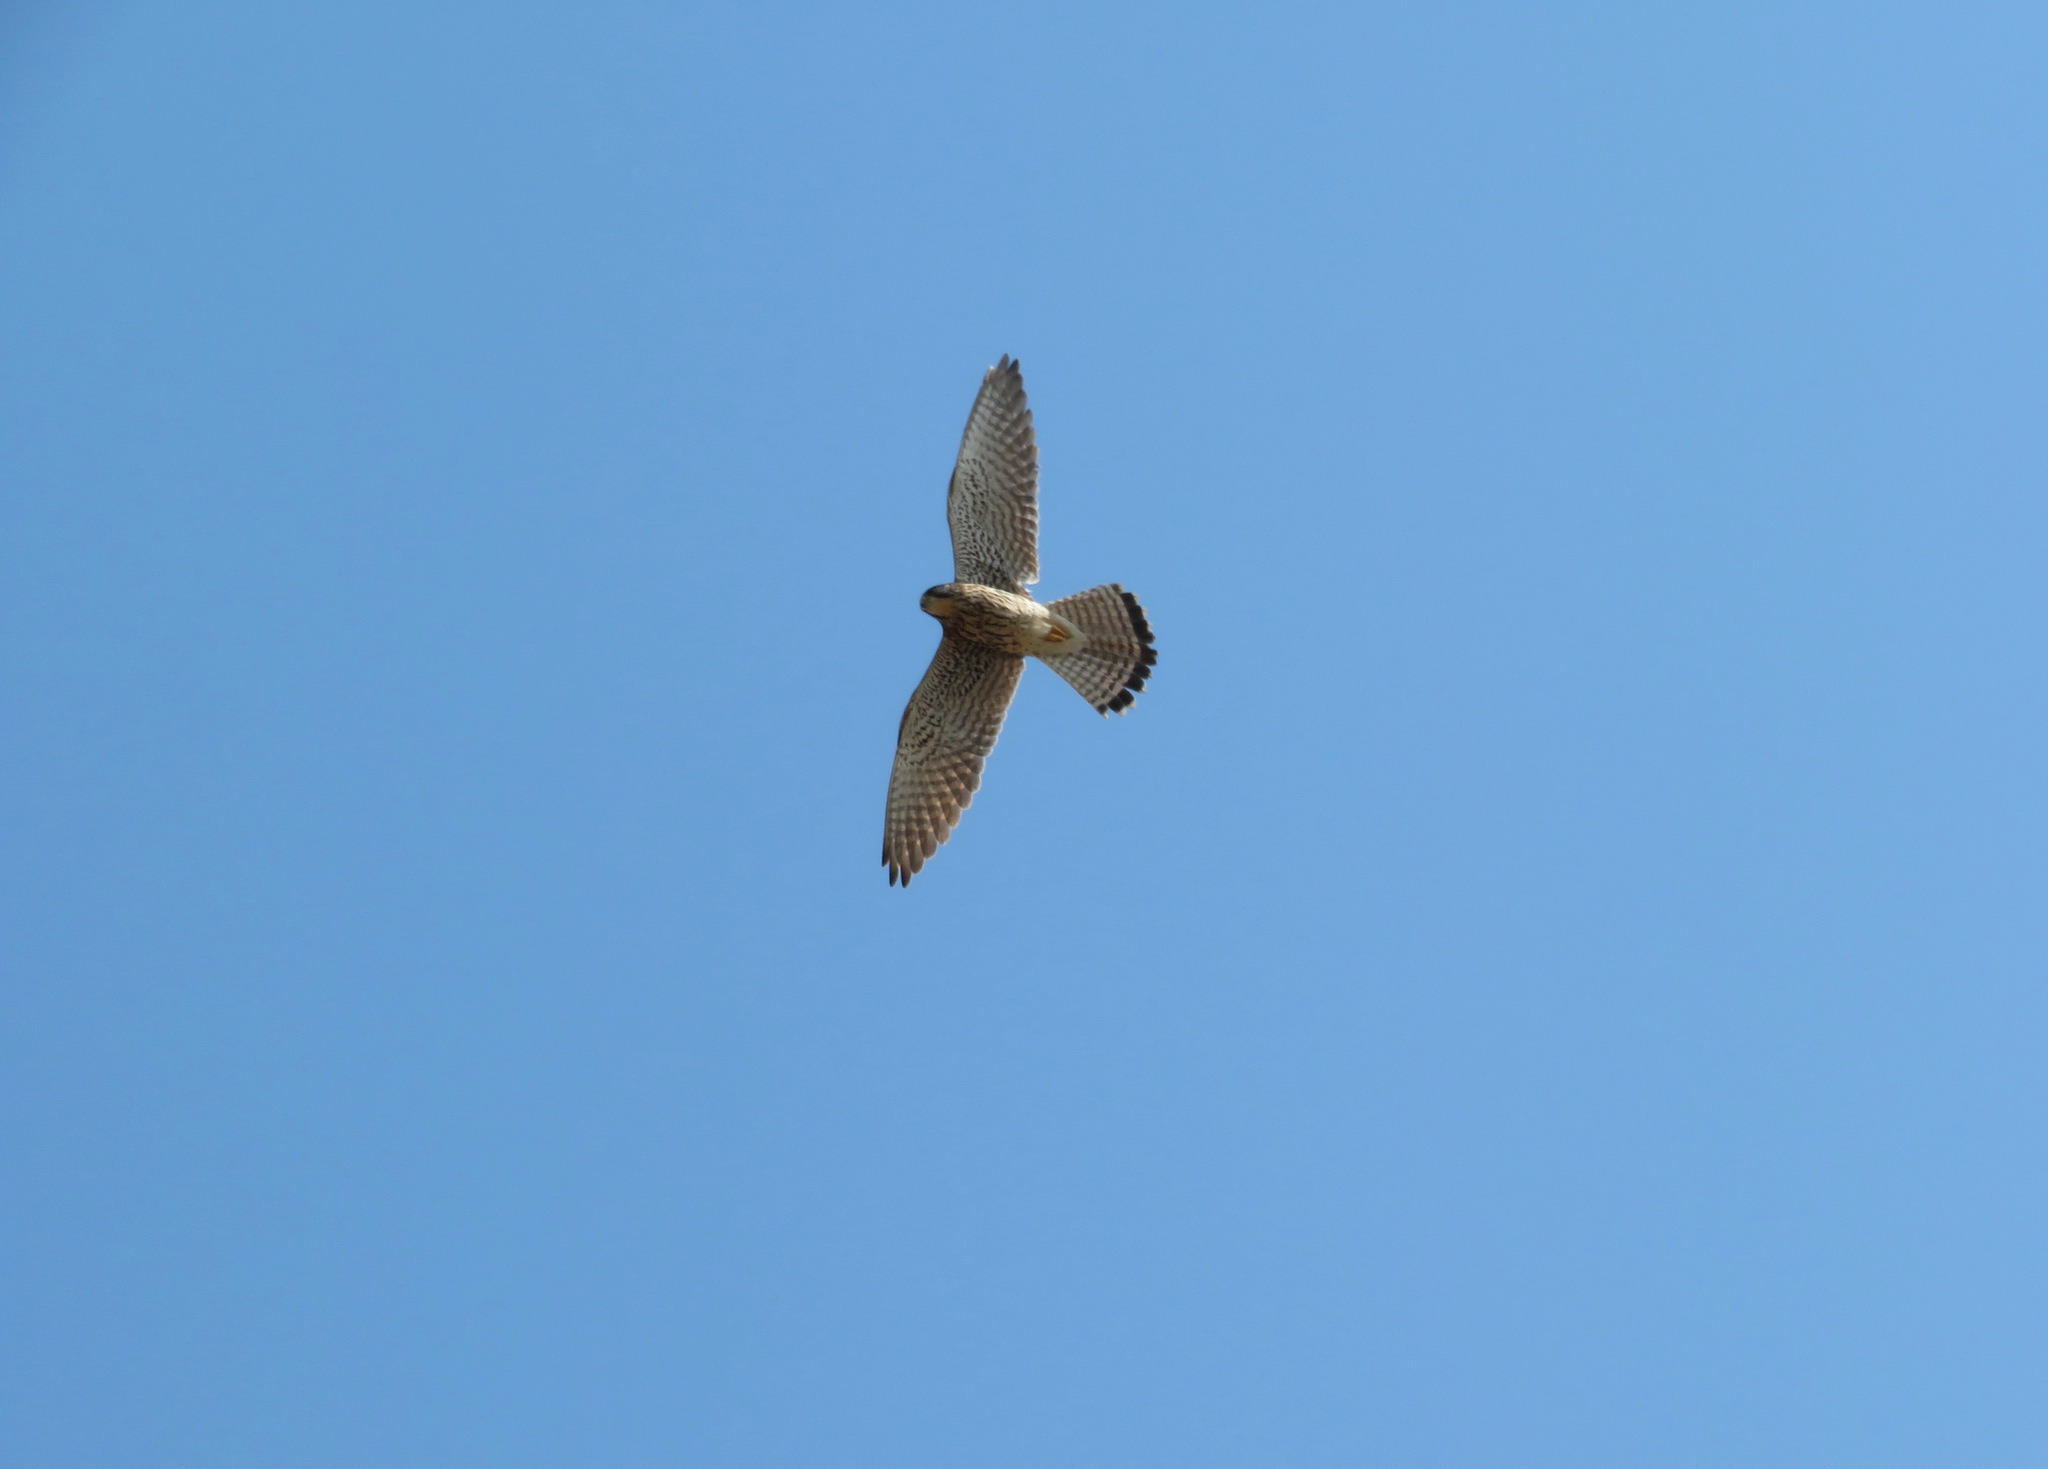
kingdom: Animalia
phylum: Chordata
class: Aves
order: Falconiformes
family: Falconidae
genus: Falco
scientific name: Falco tinnunculus
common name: Common kestrel
